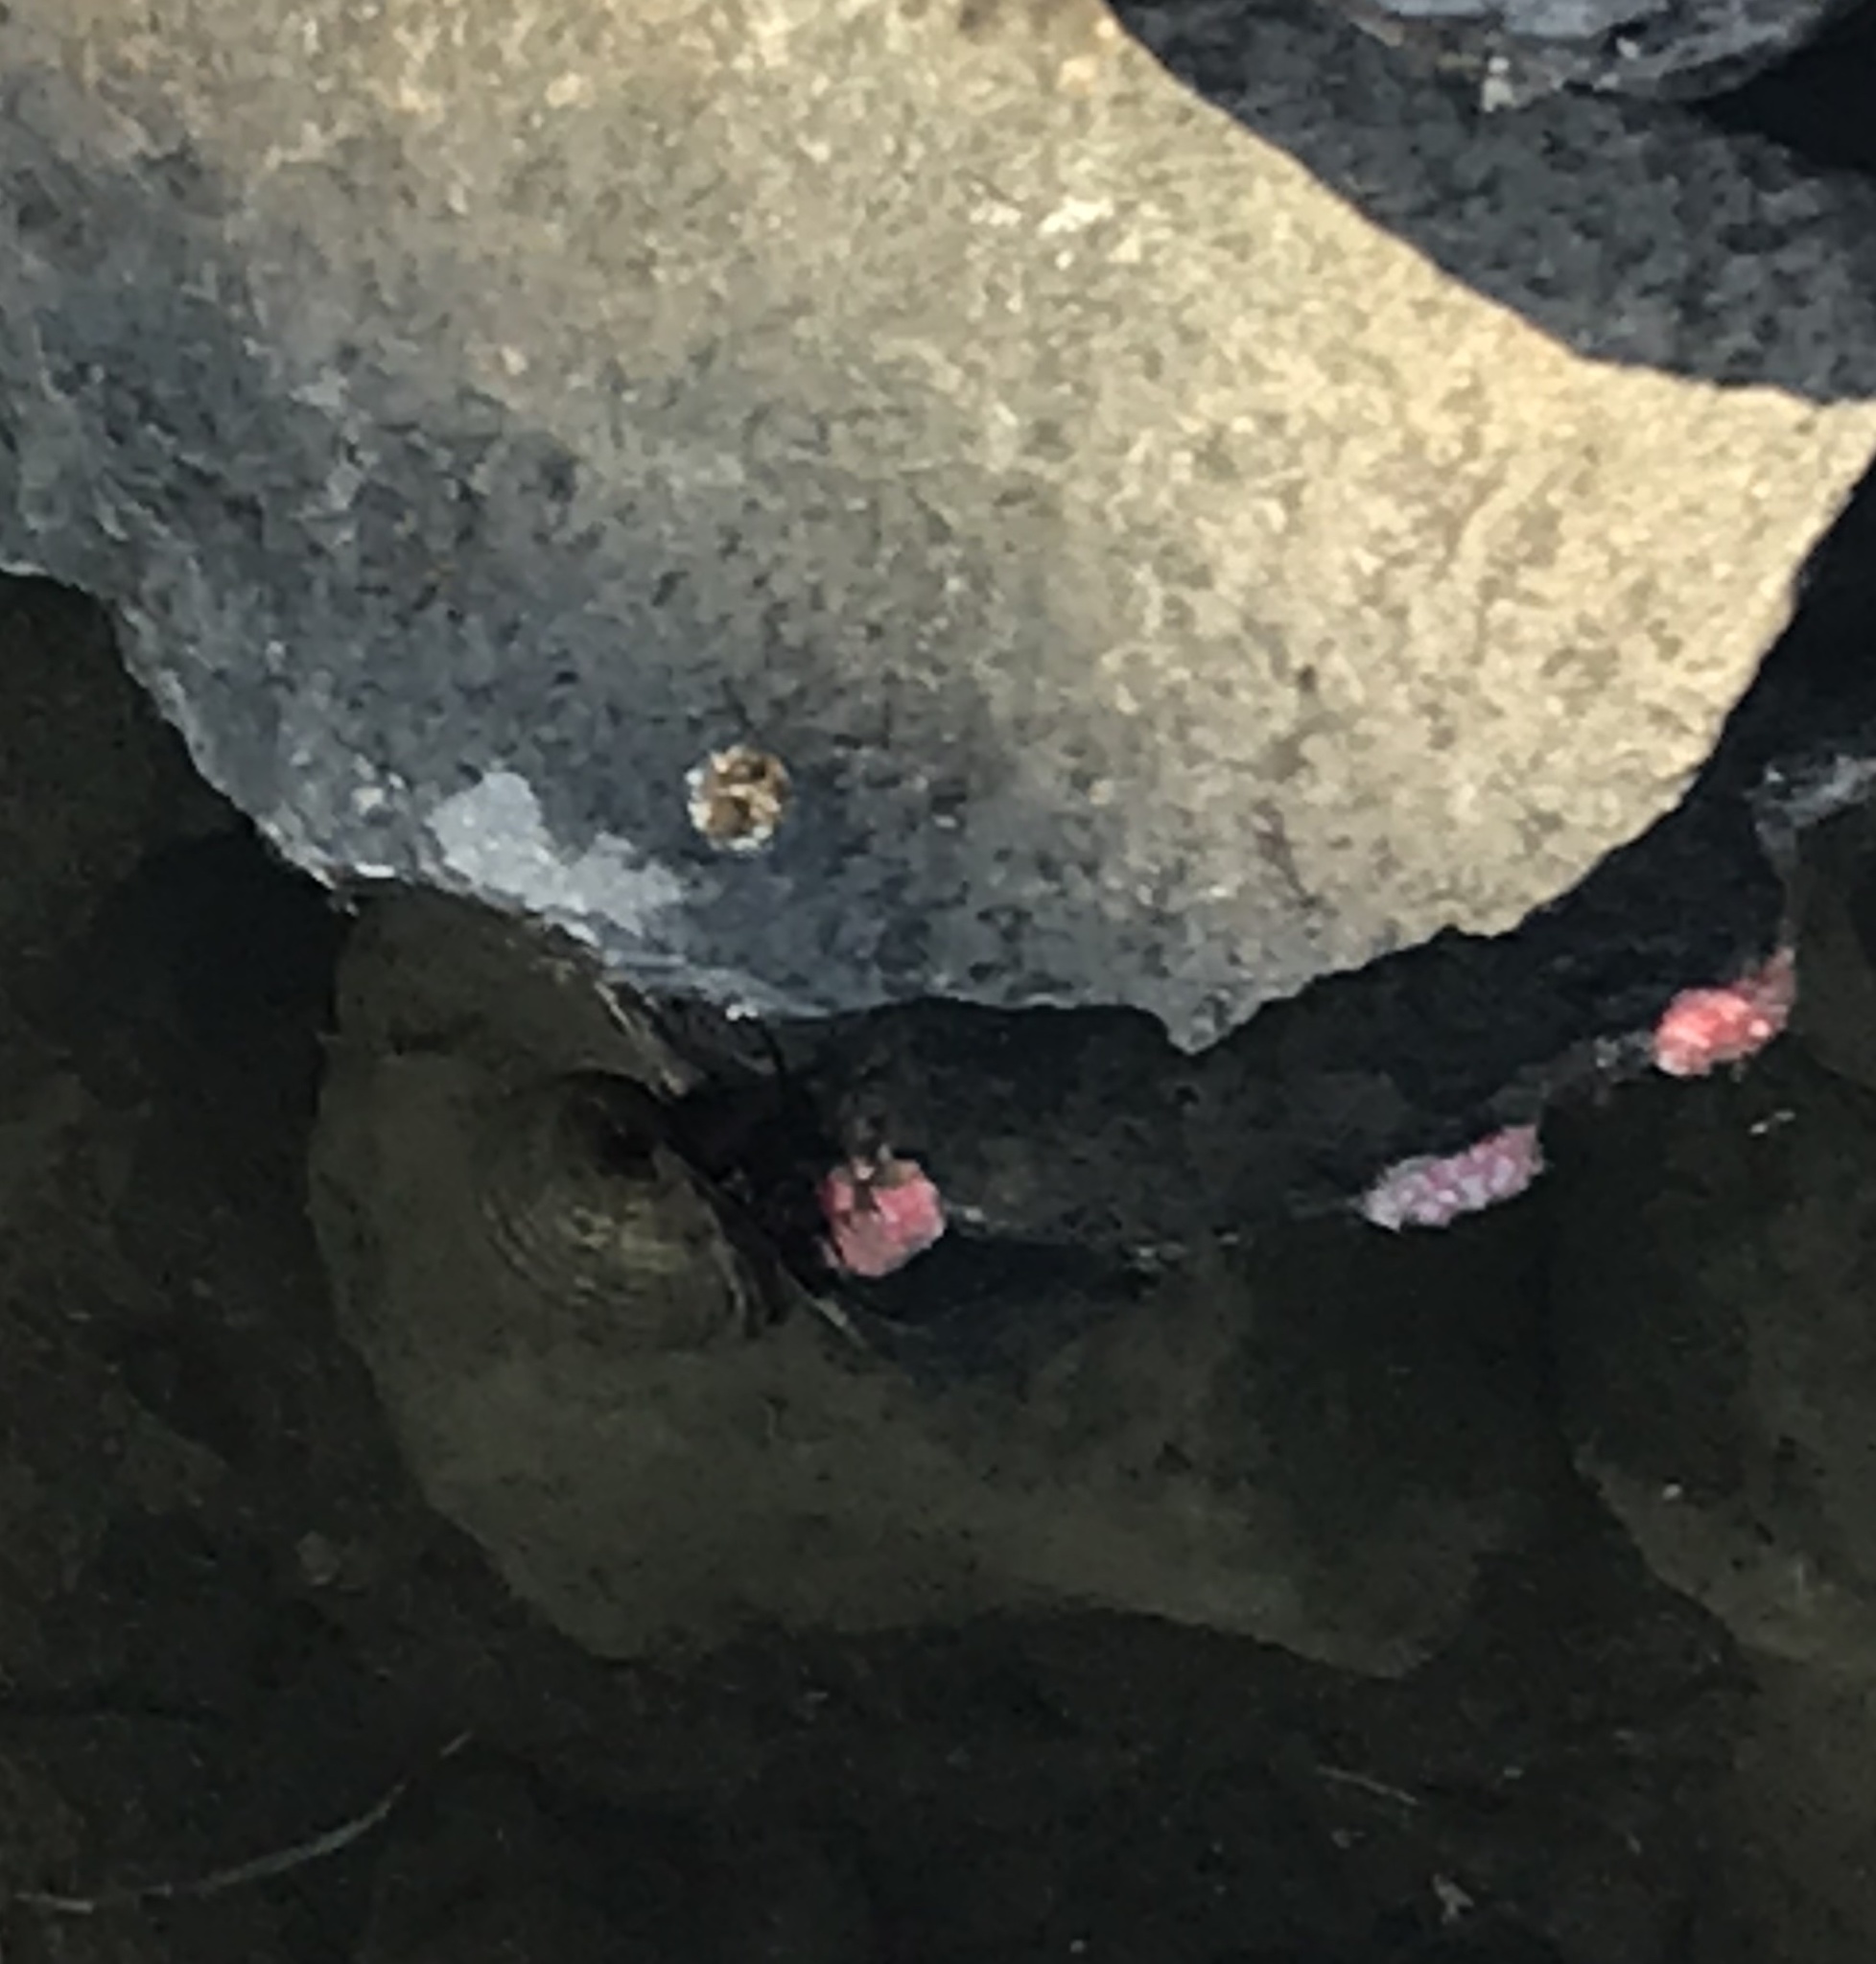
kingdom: Animalia
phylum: Mollusca
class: Gastropoda
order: Architaenioglossa
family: Ampullariidae
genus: Pomacea
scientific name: Pomacea canaliculata
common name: Channeled applesnail
